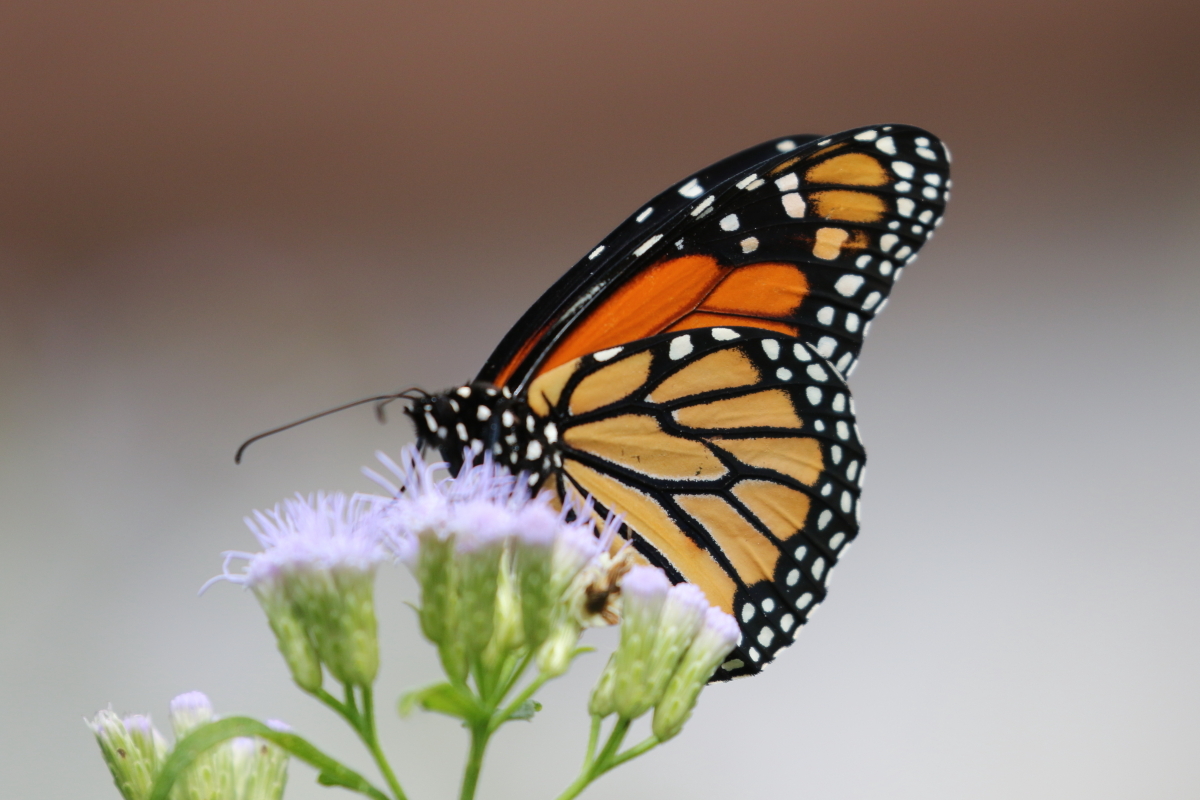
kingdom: Animalia
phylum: Arthropoda
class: Insecta
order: Lepidoptera
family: Nymphalidae
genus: Danaus
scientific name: Danaus plexippus
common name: Monarch
